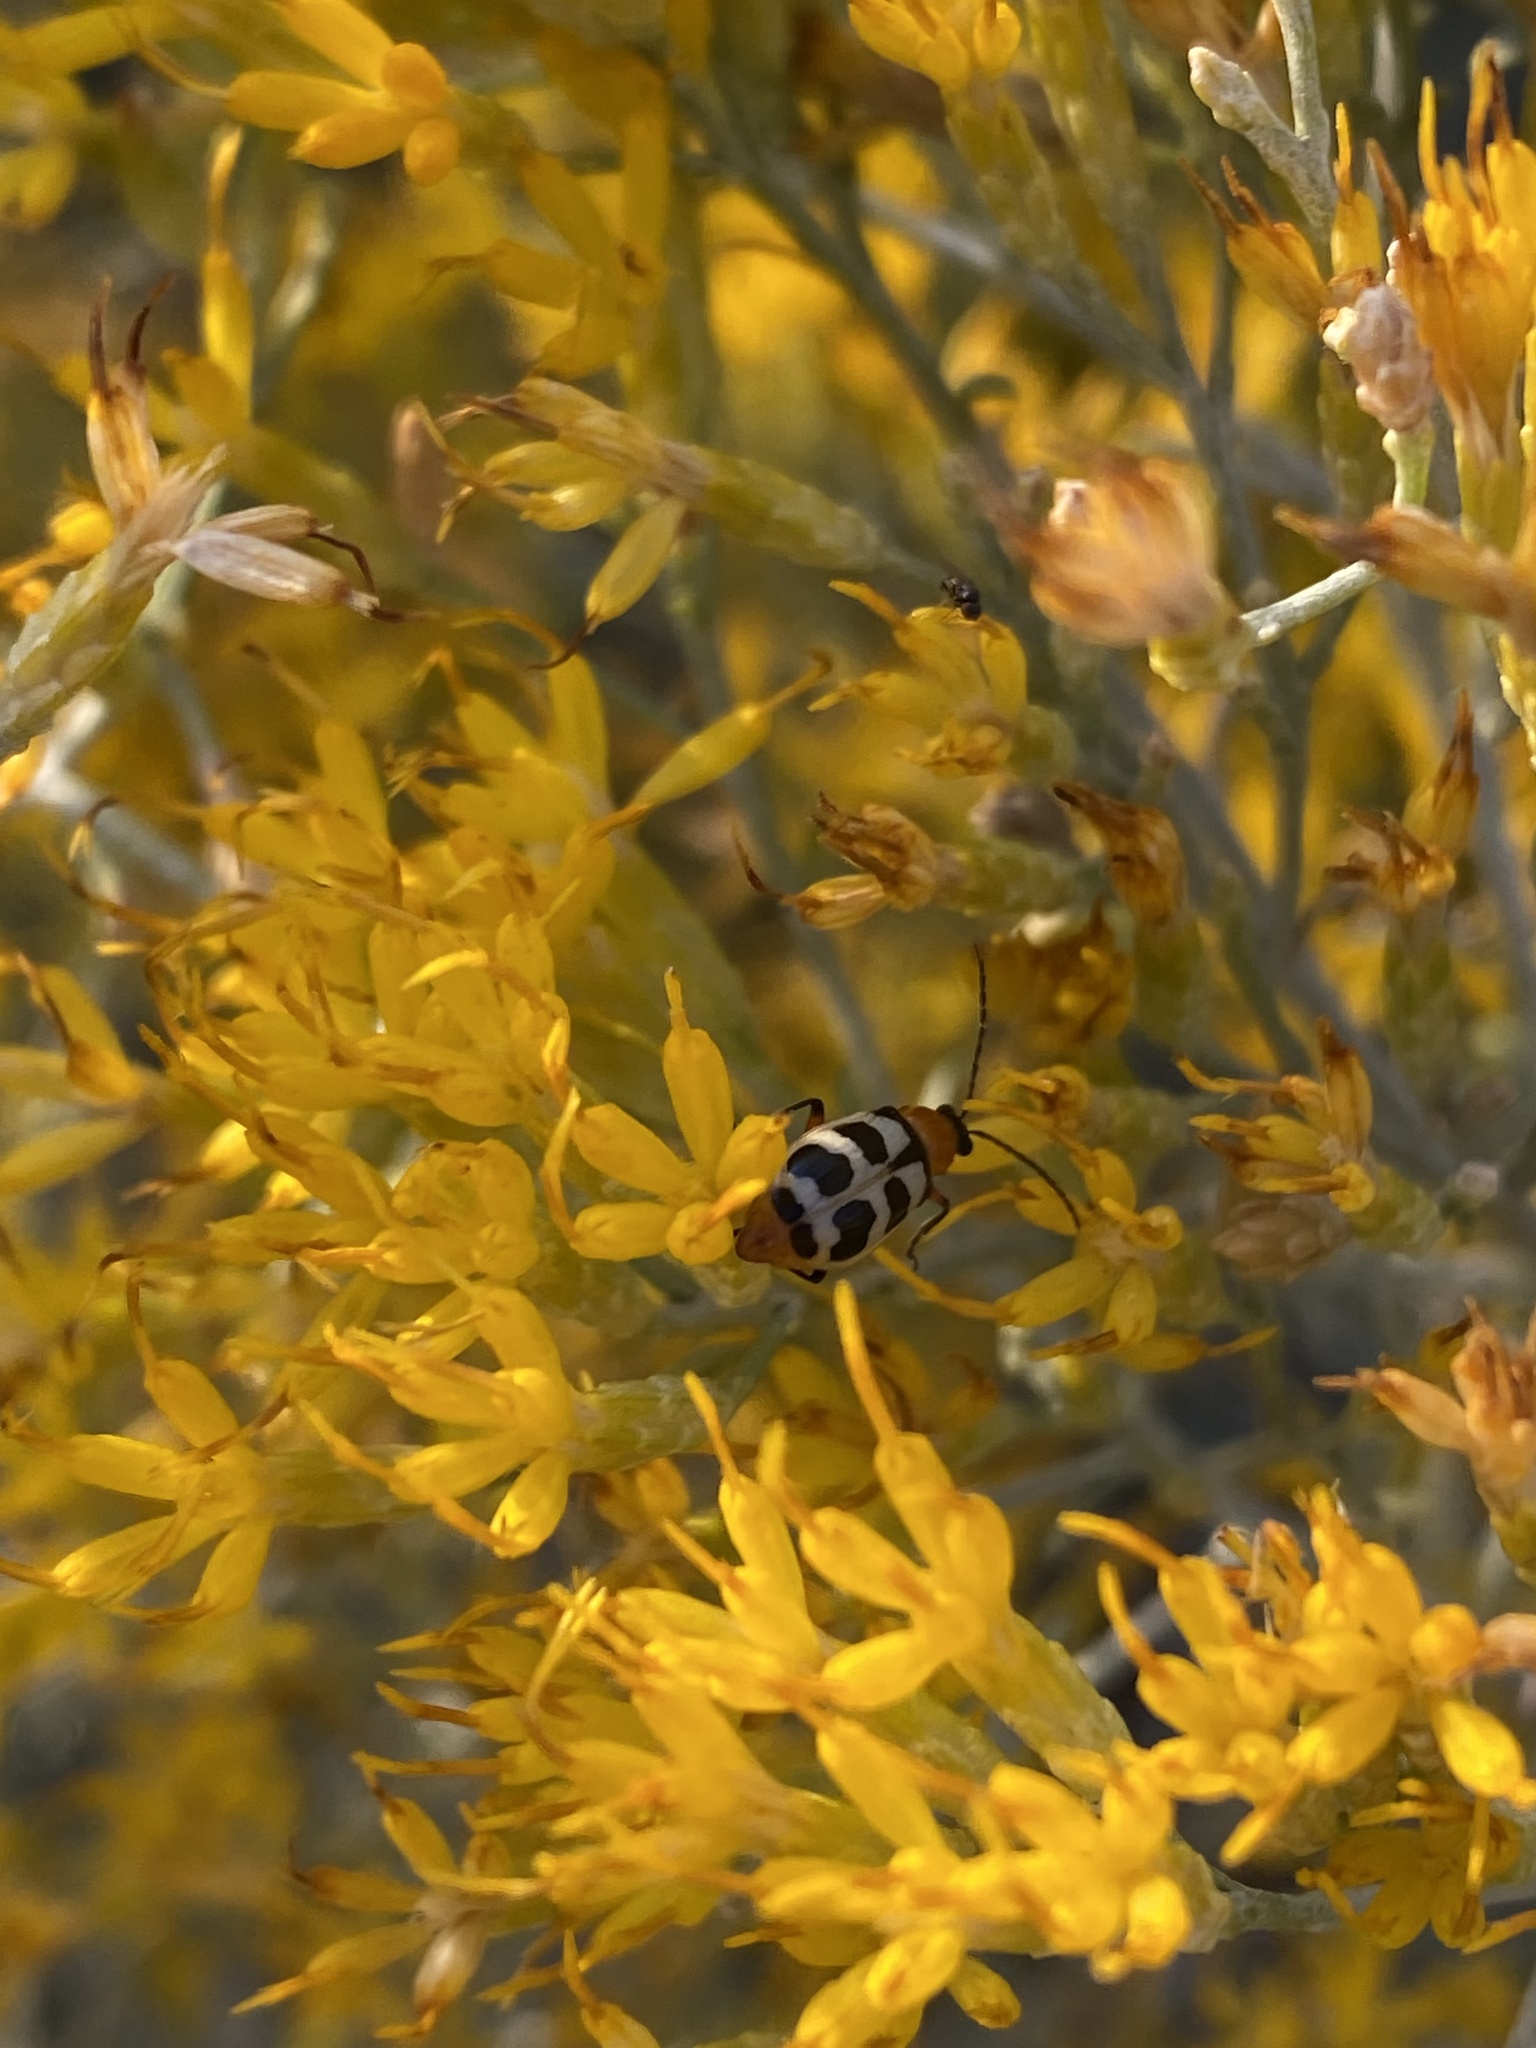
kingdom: Animalia
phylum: Arthropoda
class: Insecta
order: Coleoptera
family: Chrysomelidae
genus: Paranapiacaba
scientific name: Paranapiacaba tricincta
